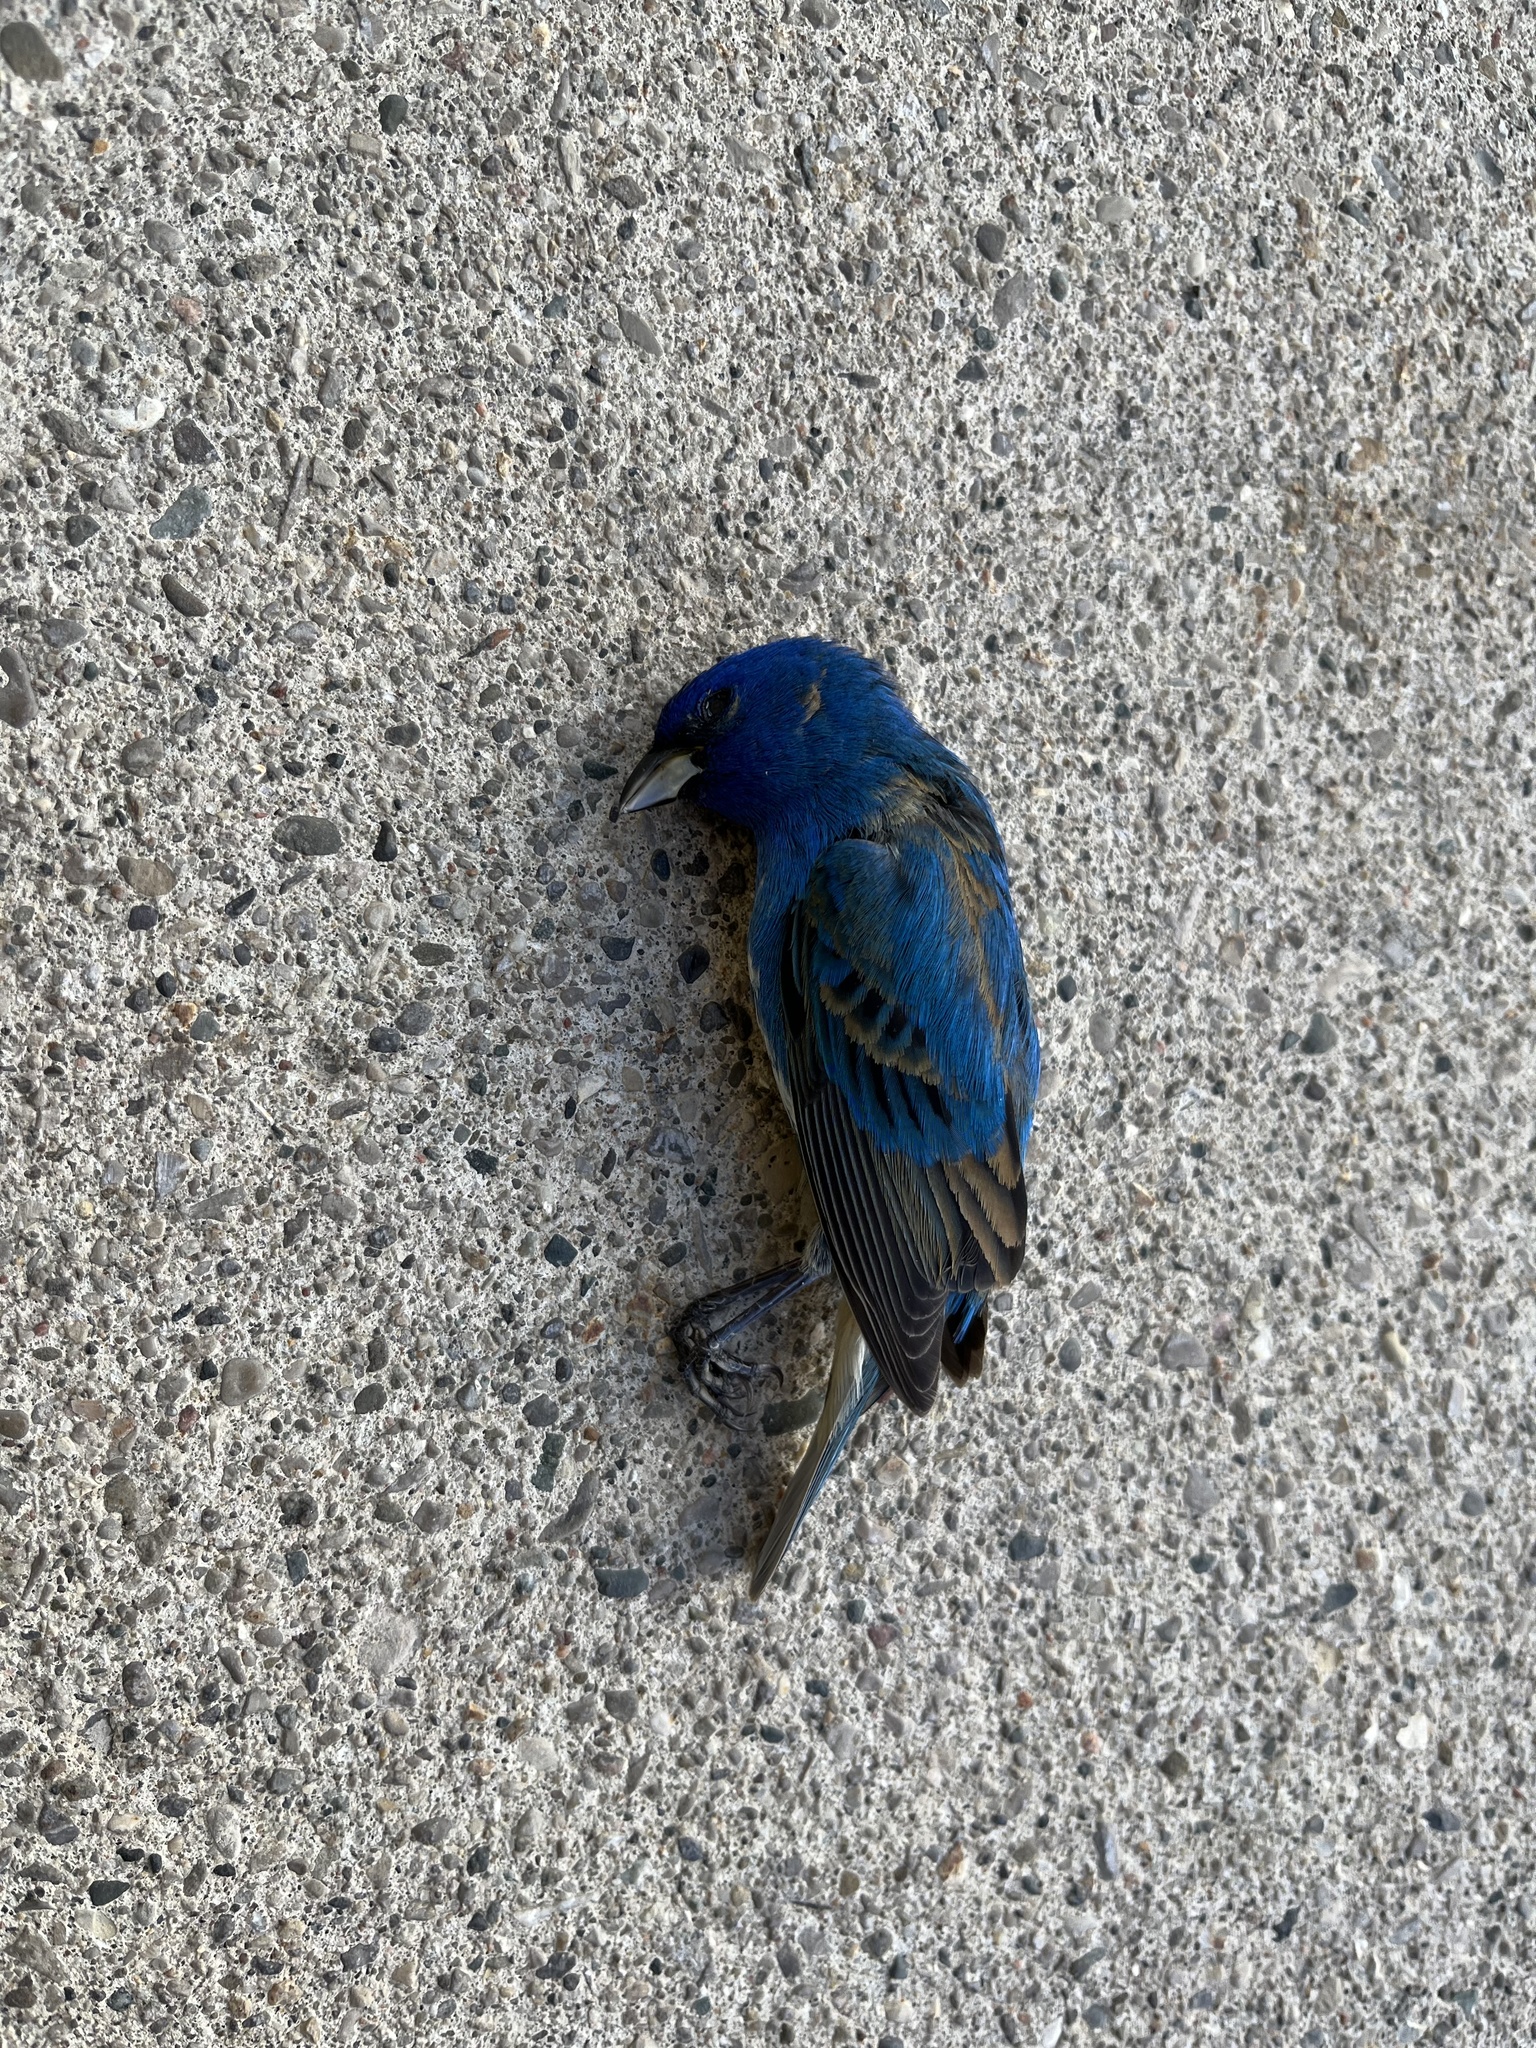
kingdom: Animalia
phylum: Chordata
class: Aves
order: Passeriformes
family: Cardinalidae
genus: Passerina
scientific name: Passerina cyanea
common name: Indigo bunting
